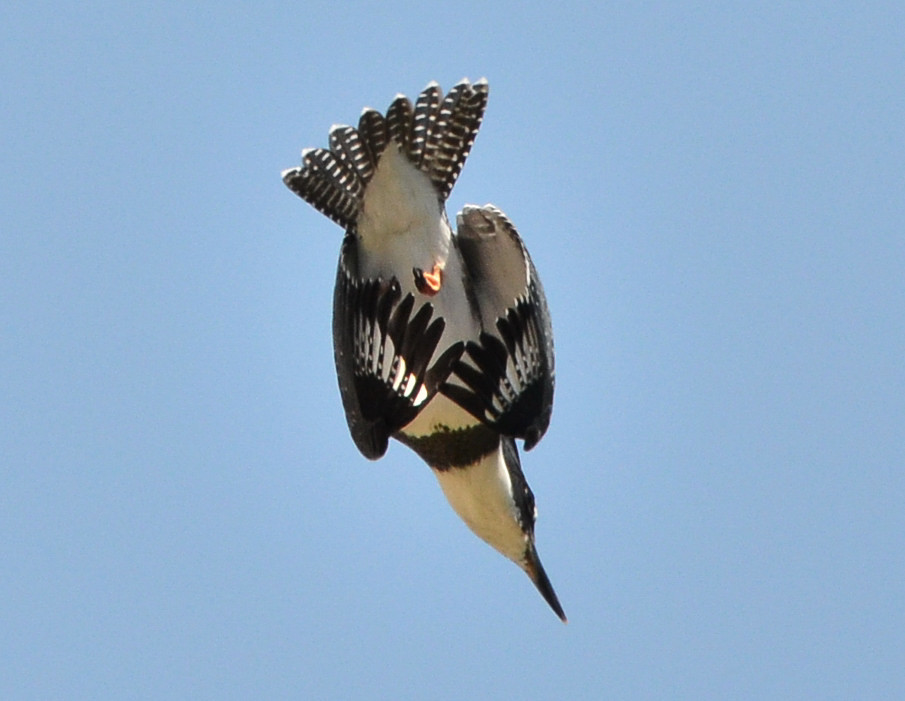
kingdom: Animalia
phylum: Chordata
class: Aves
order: Coraciiformes
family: Alcedinidae
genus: Megaceryle
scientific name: Megaceryle alcyon
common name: Belted kingfisher
